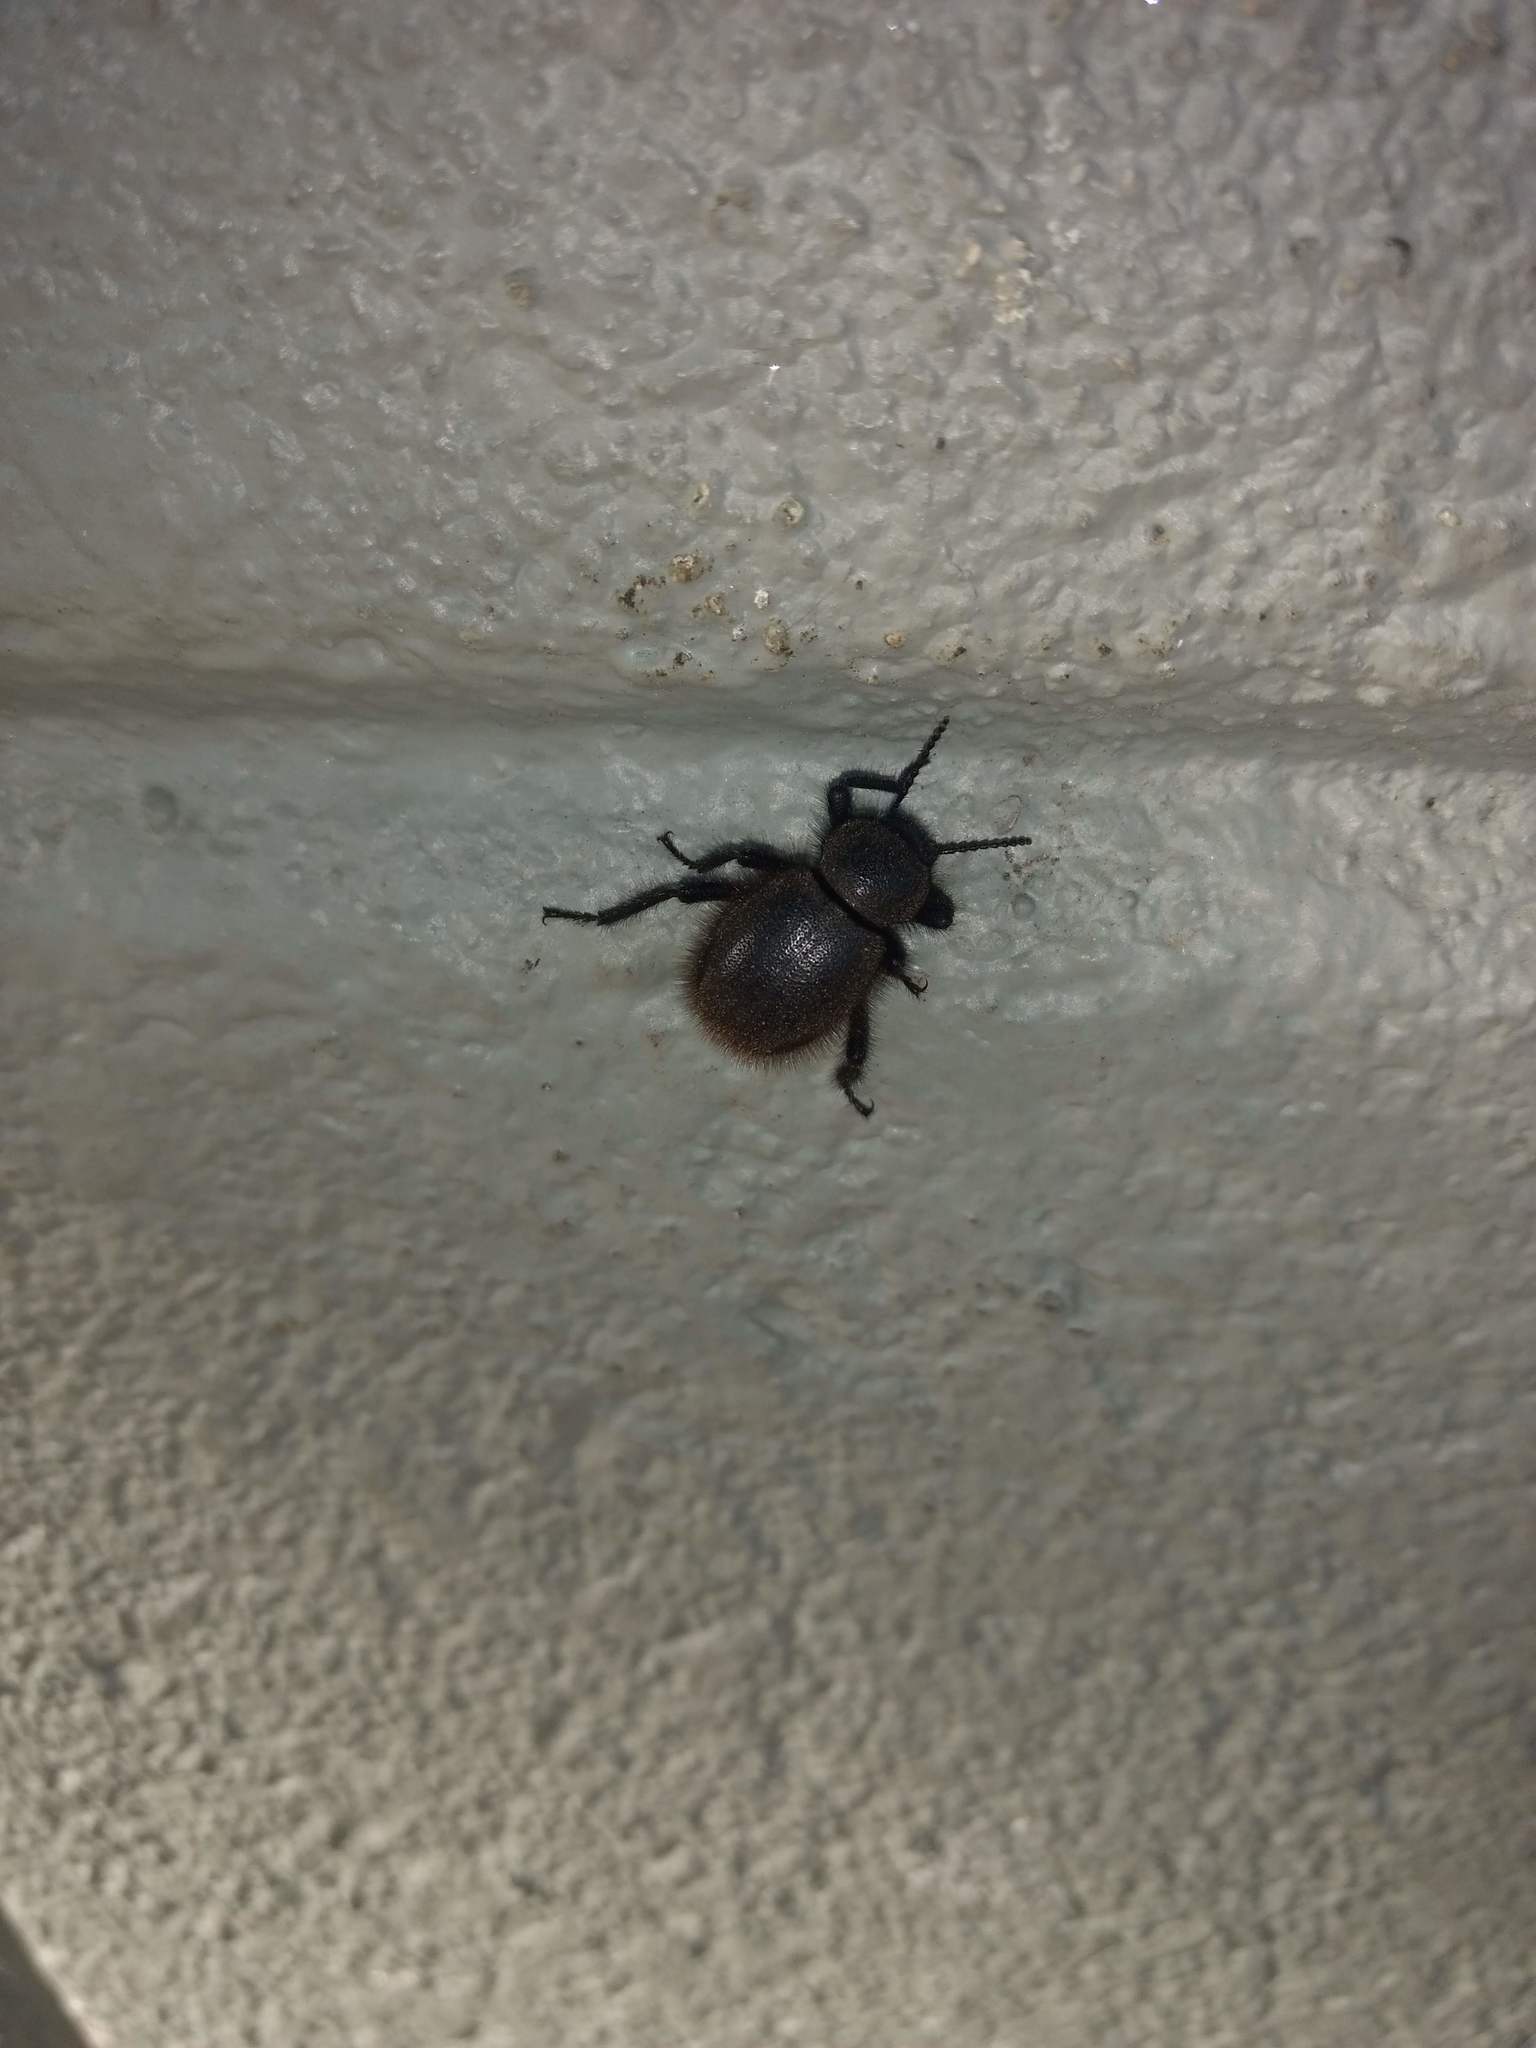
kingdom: Animalia
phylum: Arthropoda
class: Insecta
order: Coleoptera
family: Tenebrionidae
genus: Eleodes
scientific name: Eleodes osculans
